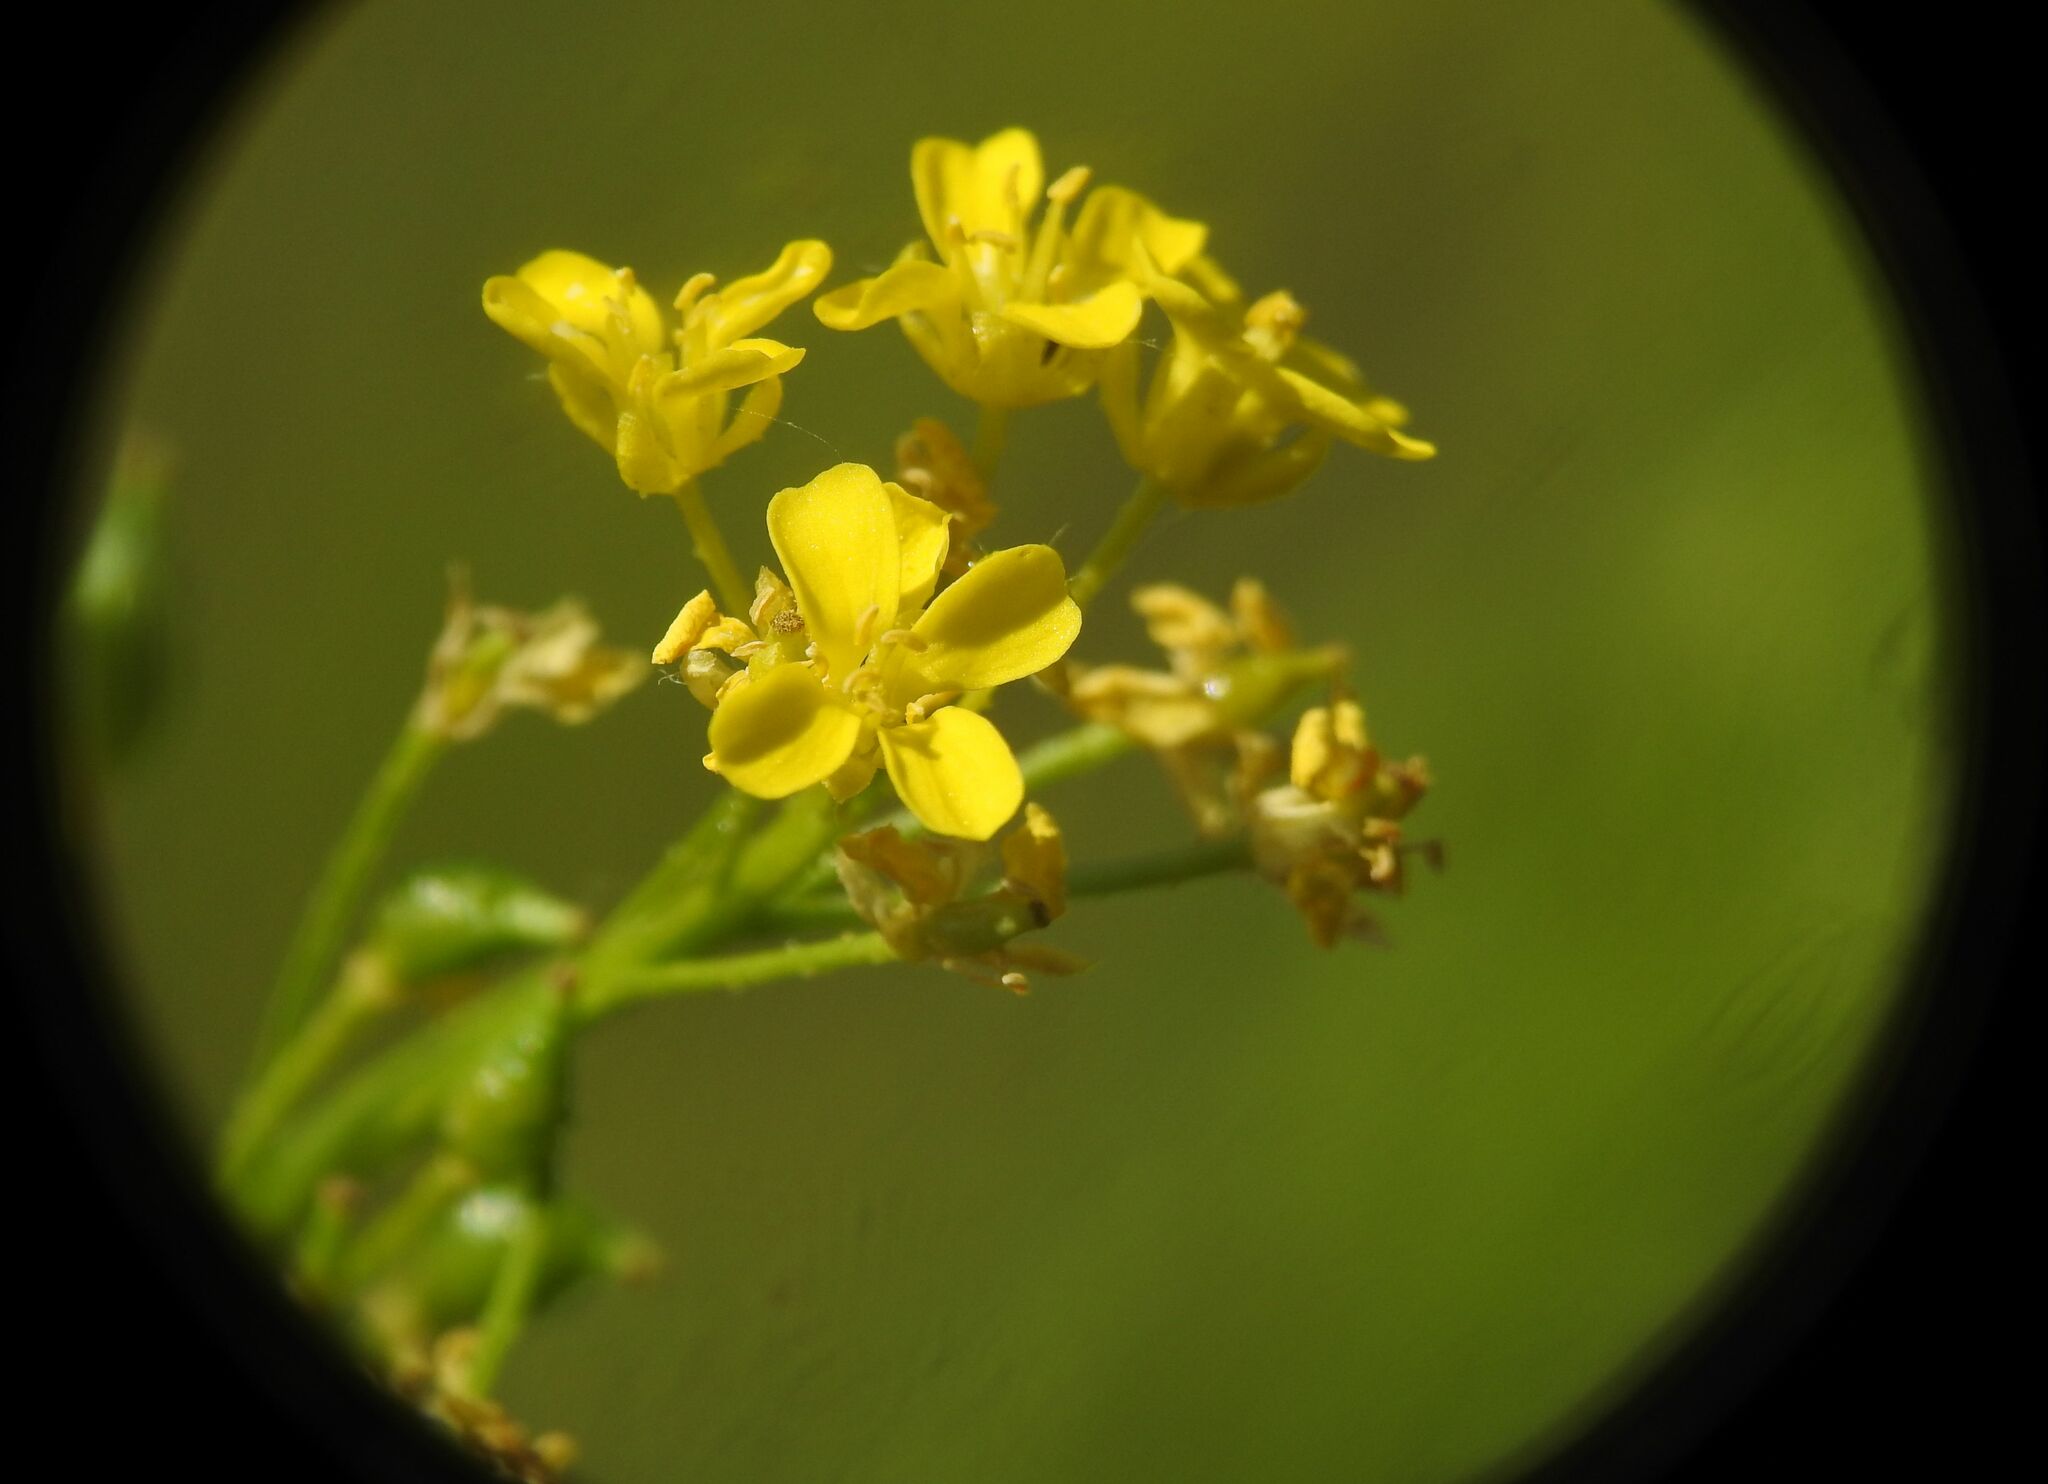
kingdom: Plantae
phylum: Tracheophyta
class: Magnoliopsida
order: Brassicales
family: Brassicaceae
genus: Bunias
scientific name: Bunias orientalis
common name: Warty-cabbage
